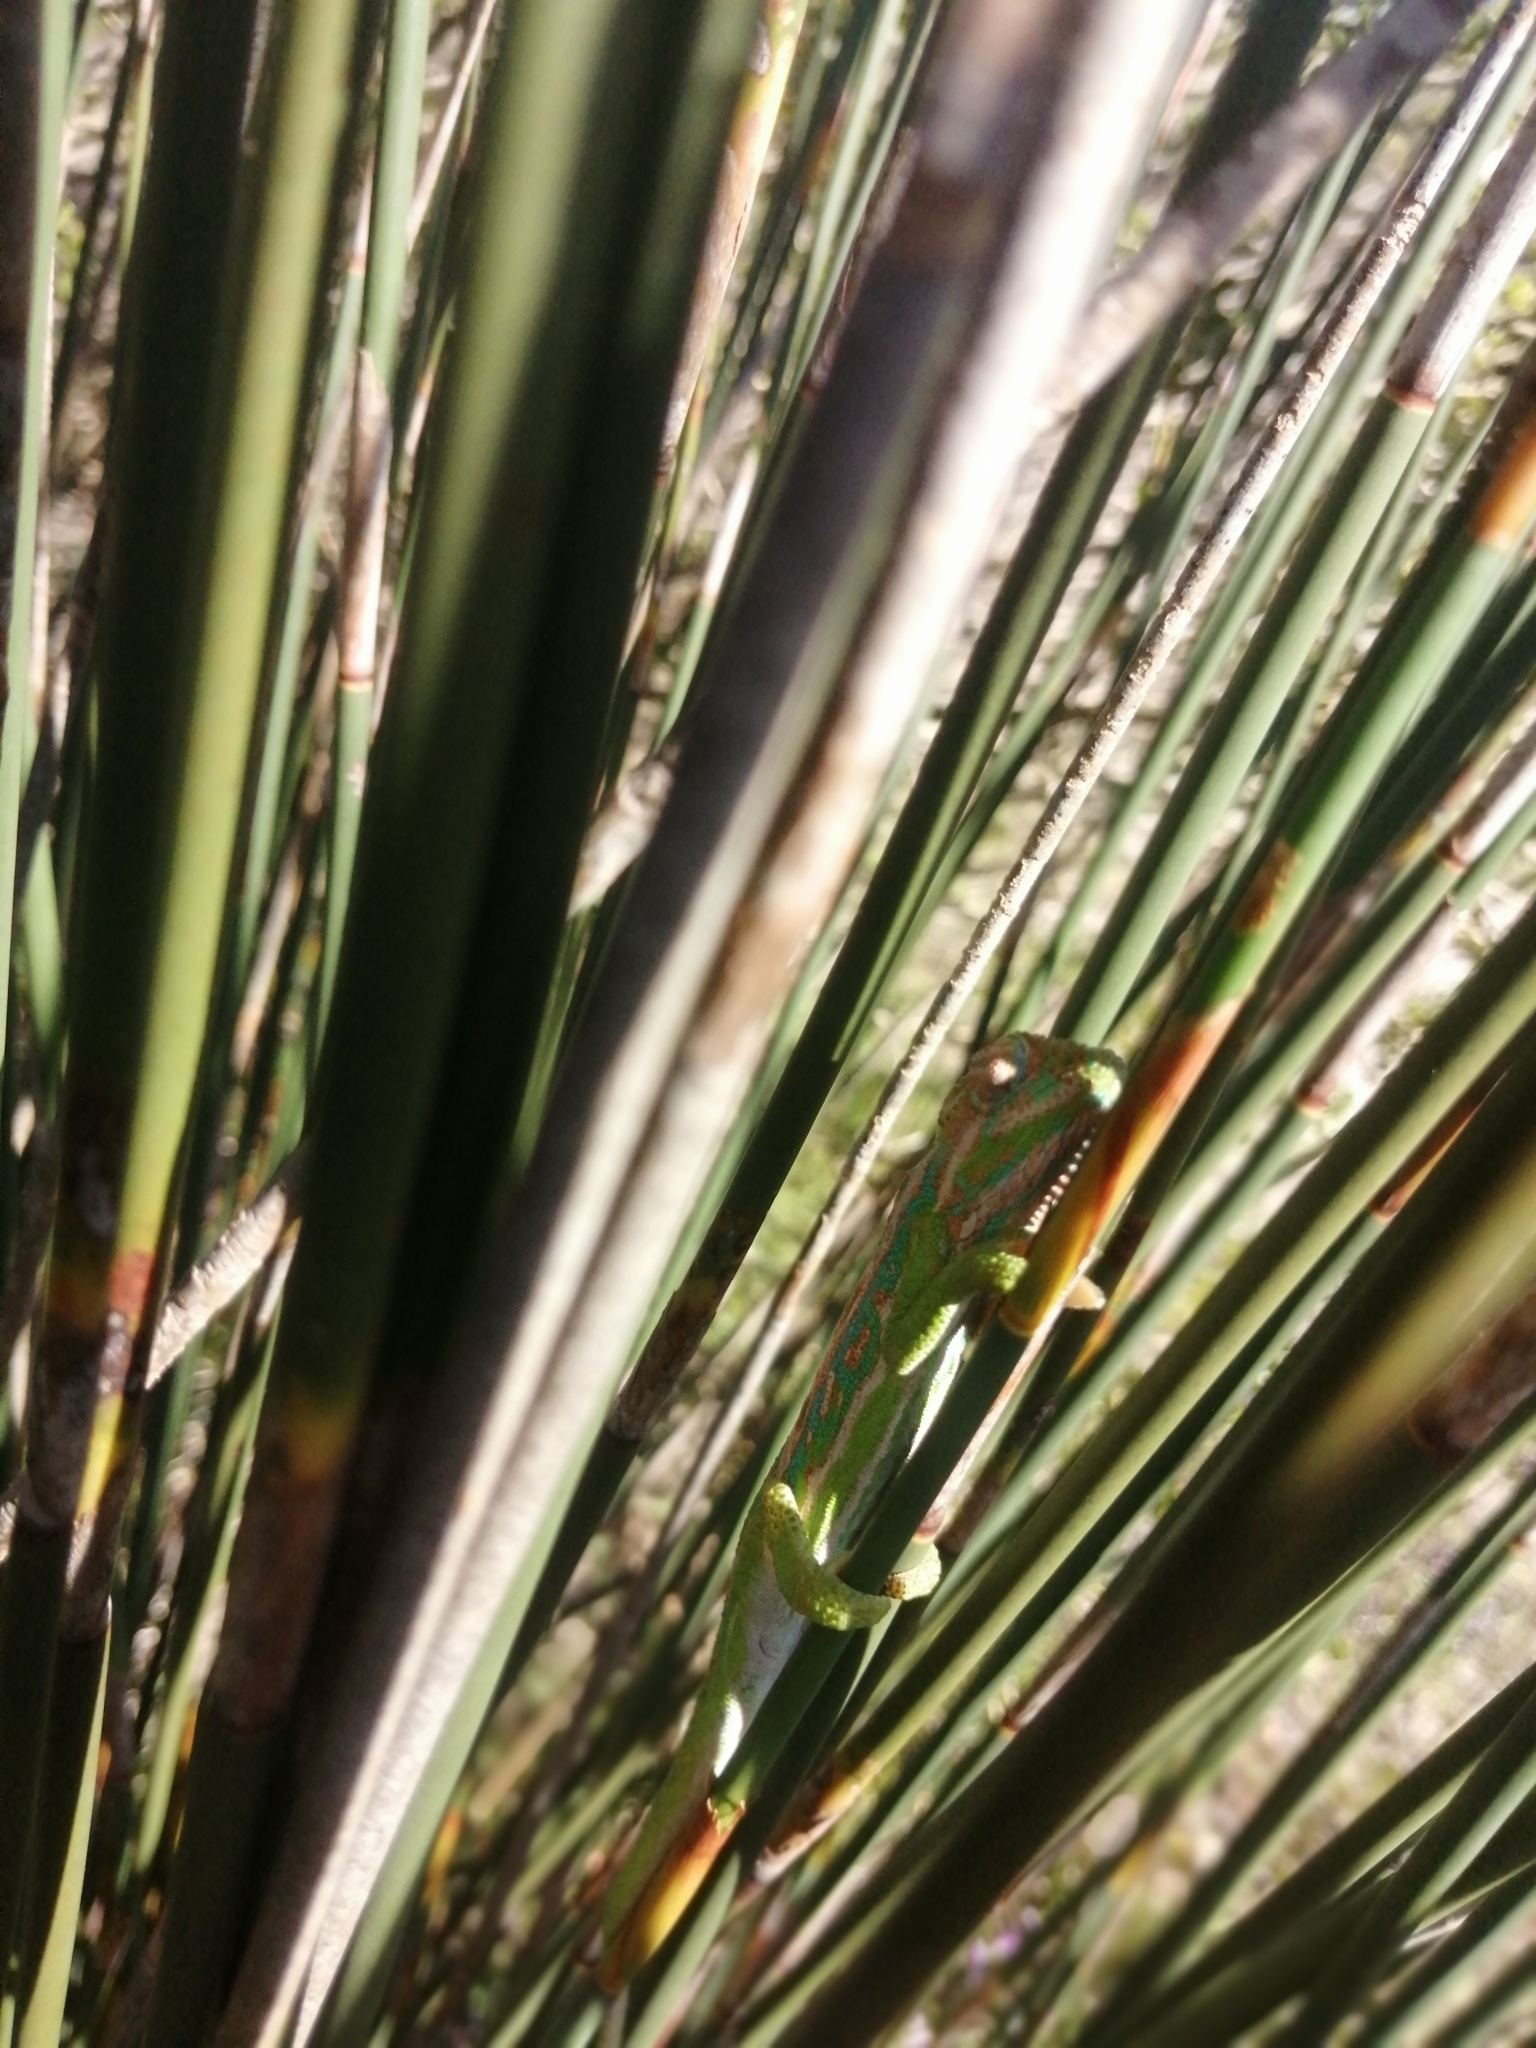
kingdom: Animalia
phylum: Chordata
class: Squamata
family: Chamaeleonidae
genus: Bradypodion
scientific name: Bradypodion pumilum
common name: Cape dwarf chameleon
